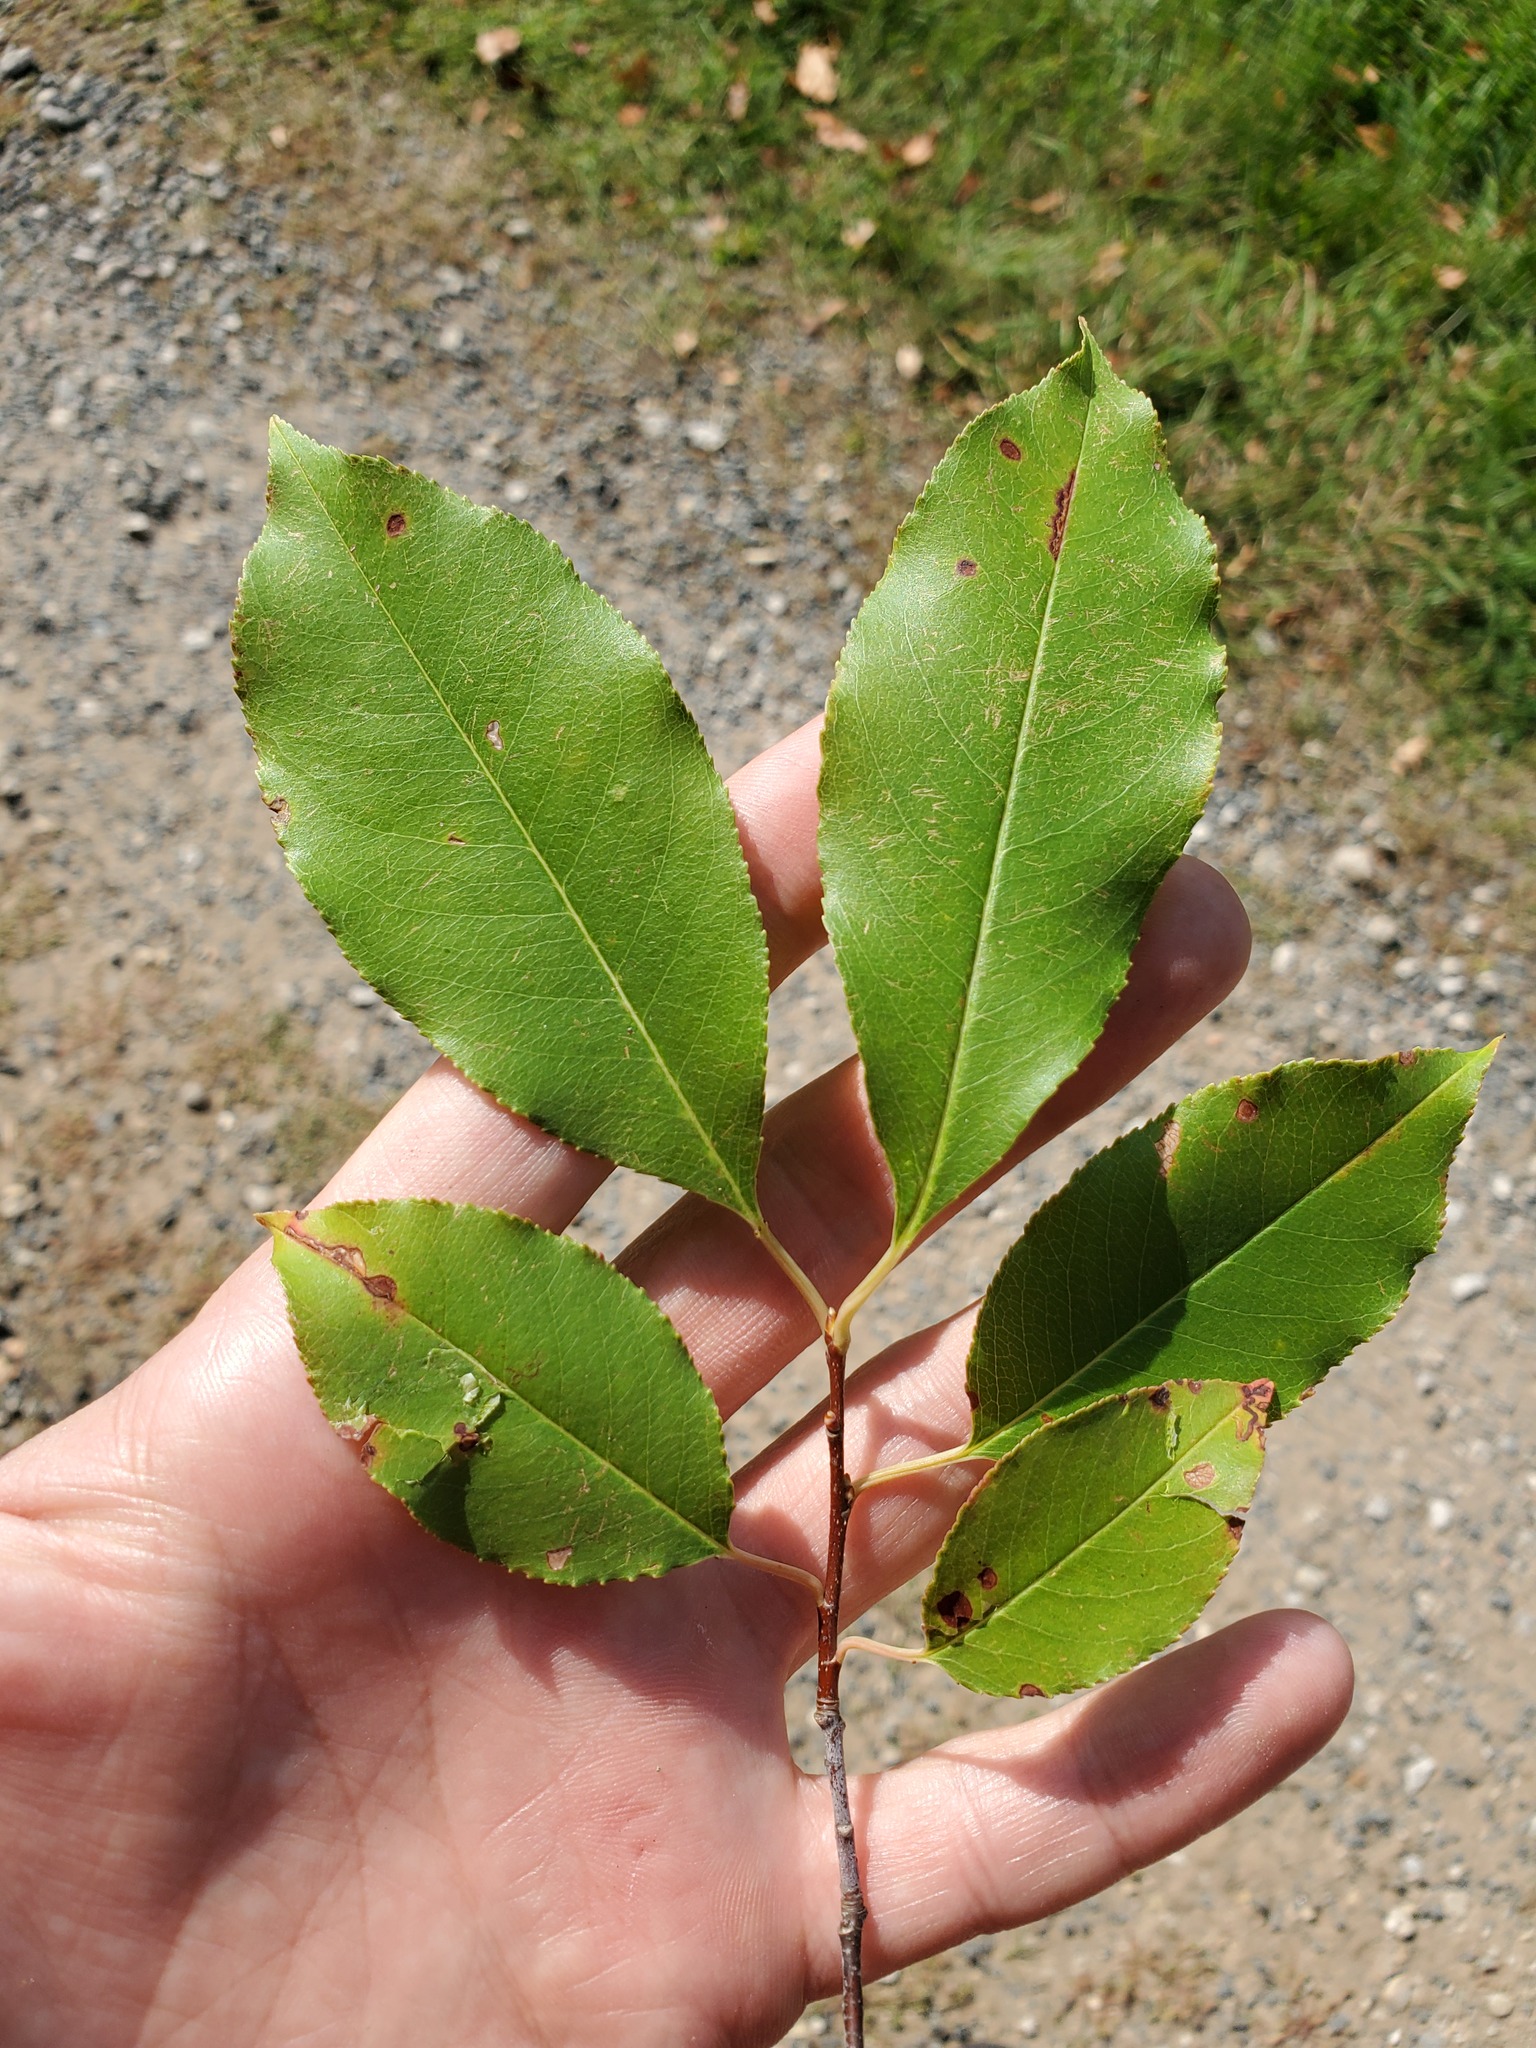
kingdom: Plantae
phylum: Tracheophyta
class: Magnoliopsida
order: Rosales
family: Rosaceae
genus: Prunus
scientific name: Prunus serotina
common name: Black cherry
